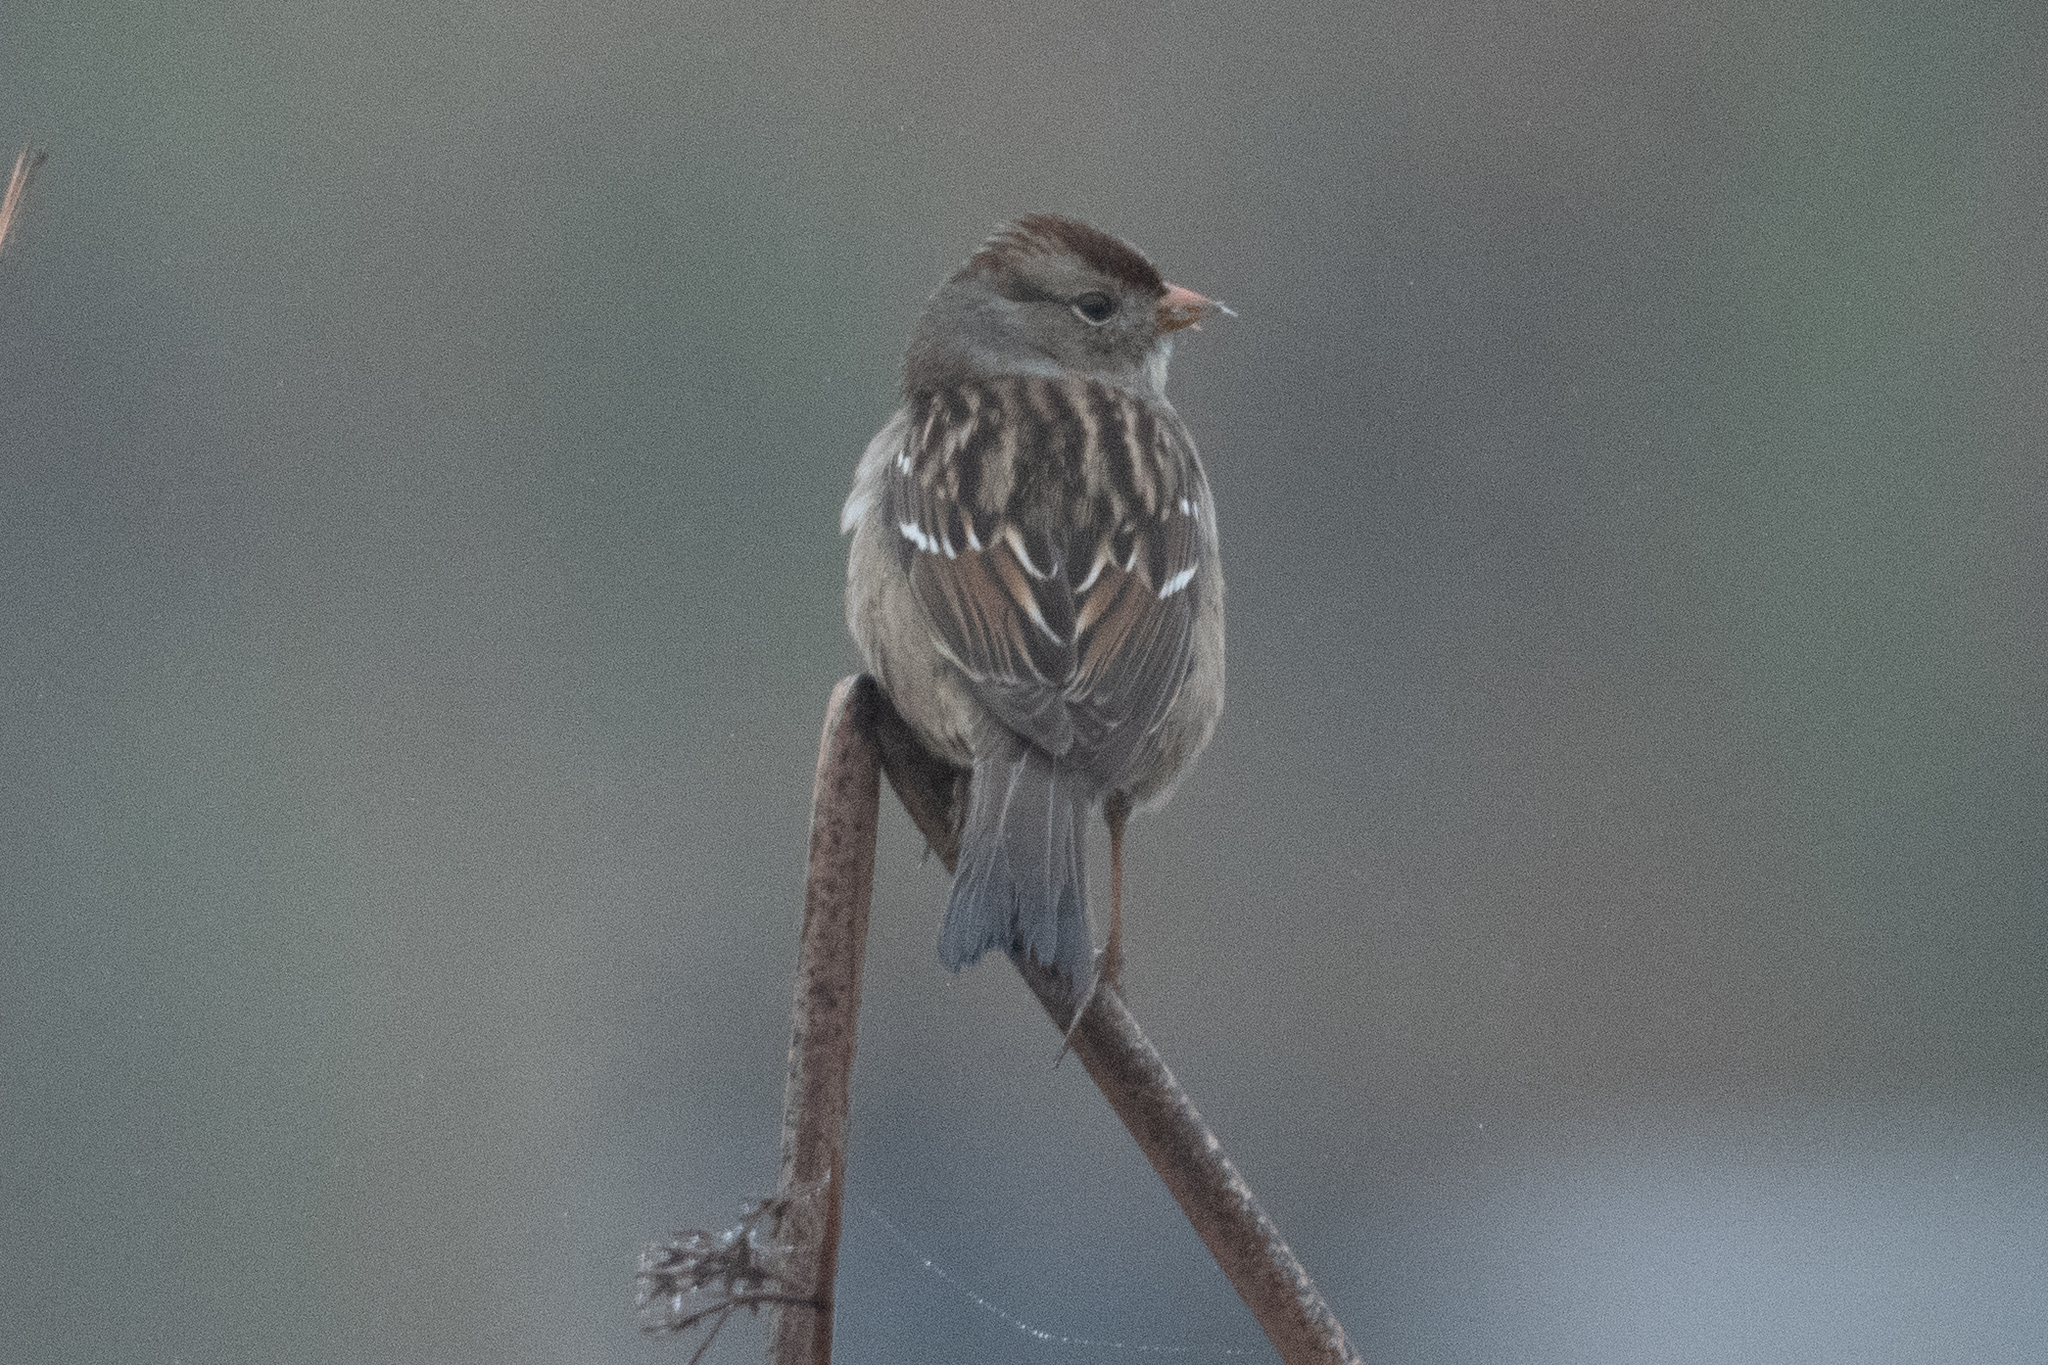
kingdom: Animalia
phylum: Chordata
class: Aves
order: Passeriformes
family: Passerellidae
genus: Zonotrichia
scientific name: Zonotrichia leucophrys
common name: White-crowned sparrow
